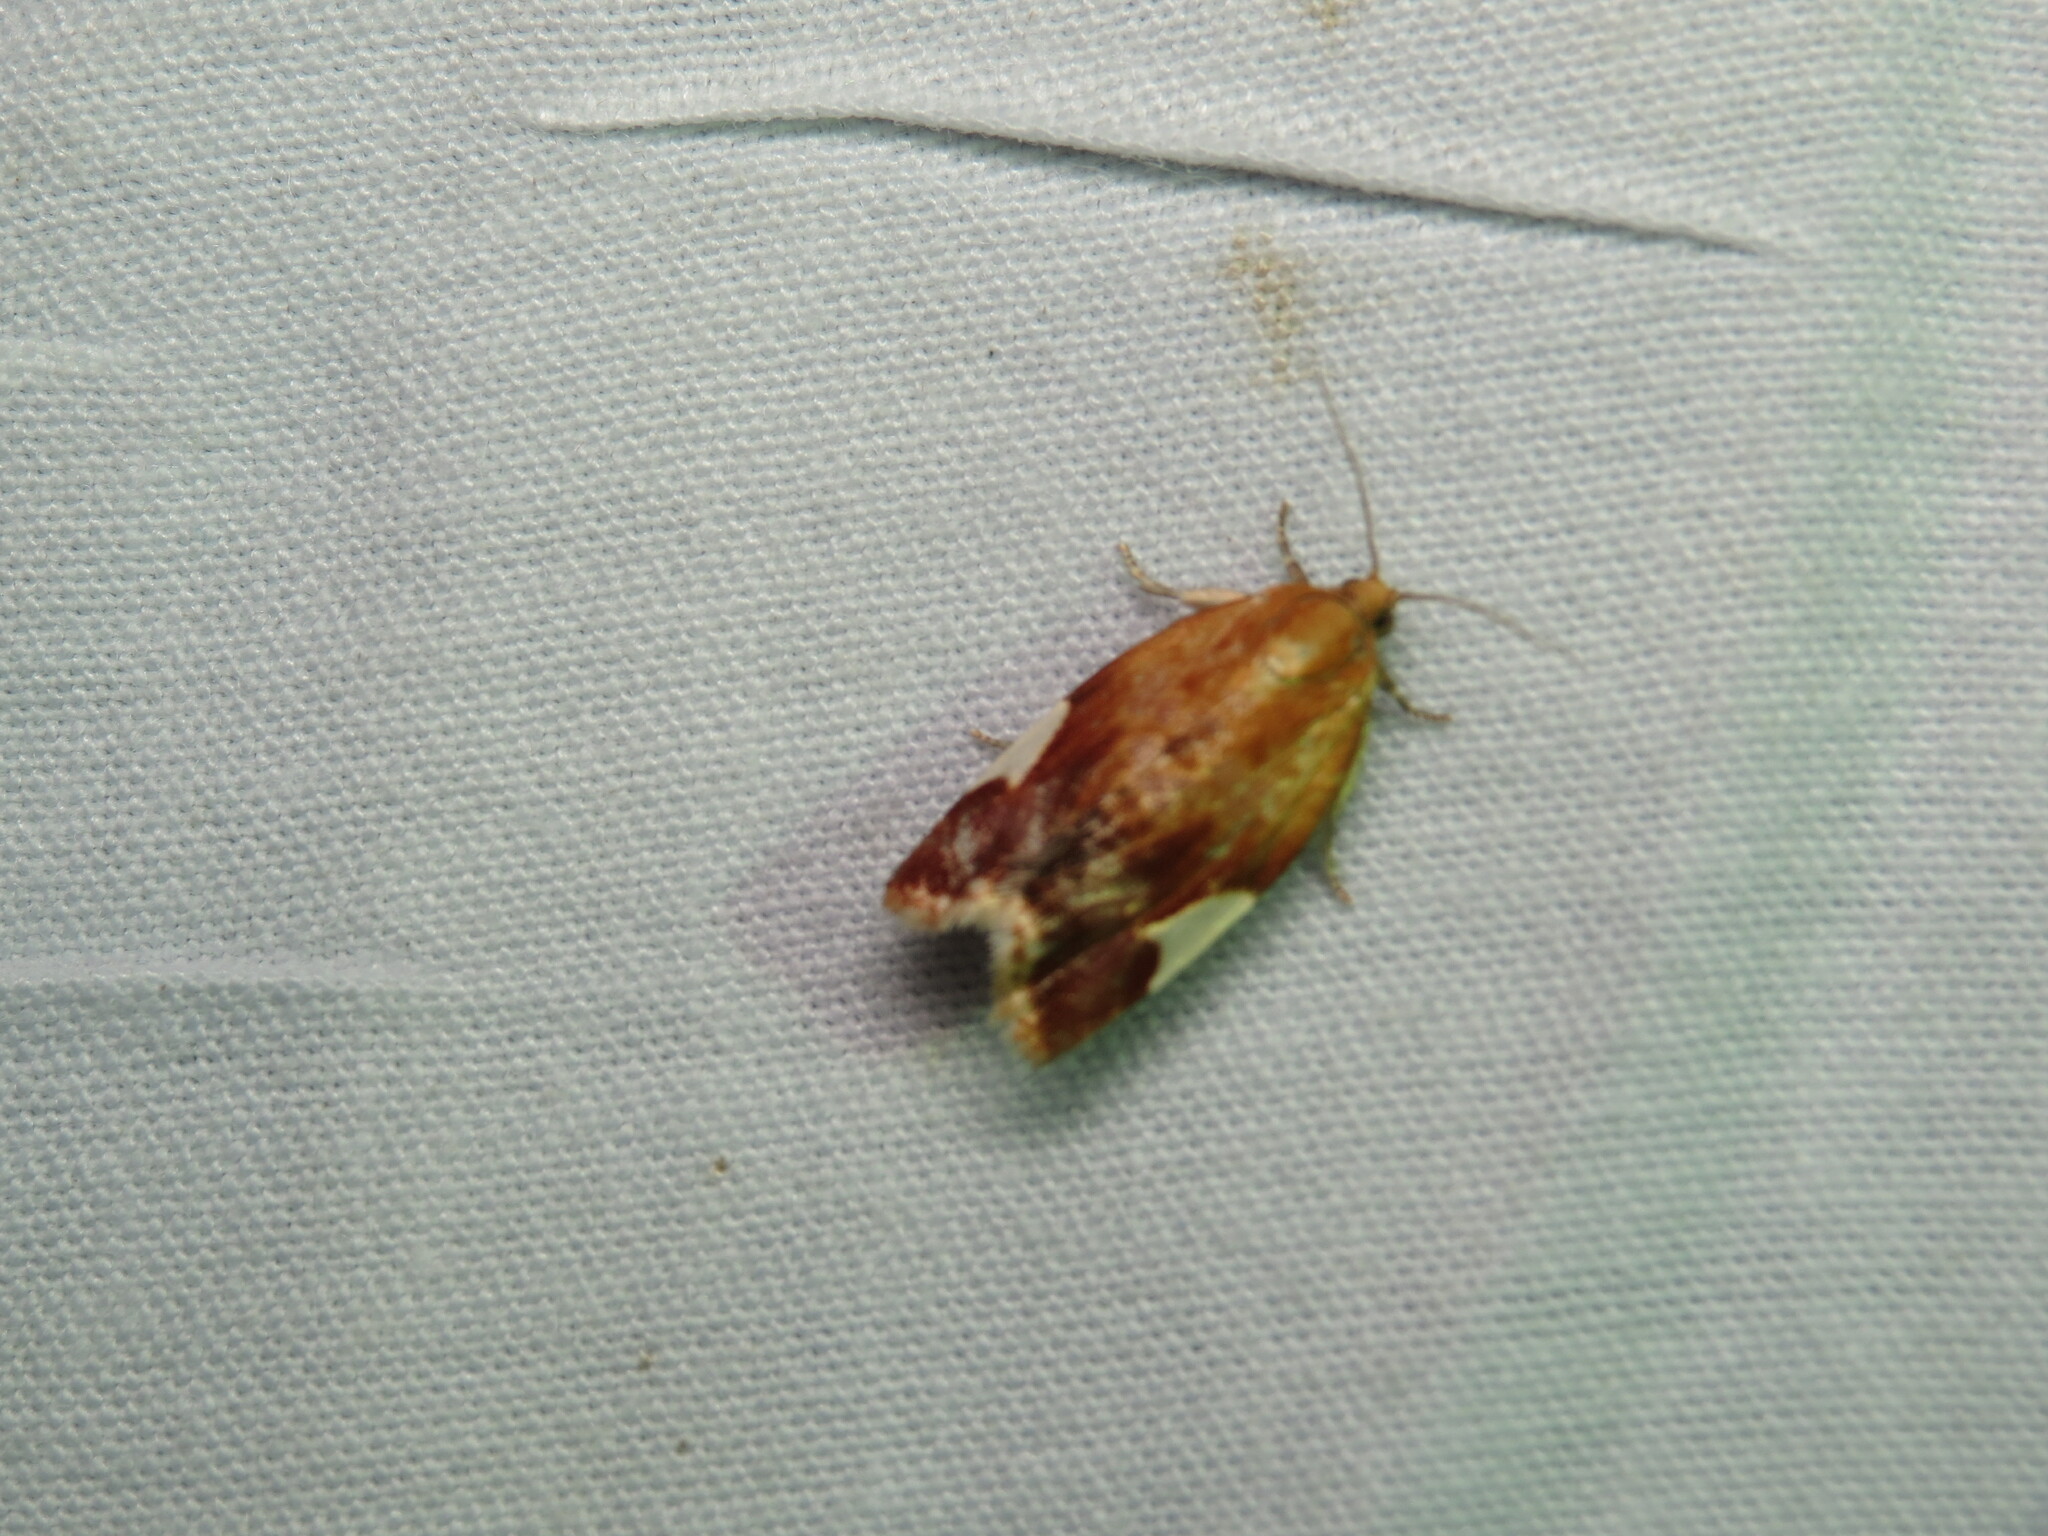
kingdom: Animalia
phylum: Arthropoda
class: Insecta
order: Lepidoptera
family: Tortricidae
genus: Clepsis
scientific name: Clepsis persicana
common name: White triangle tortrix
